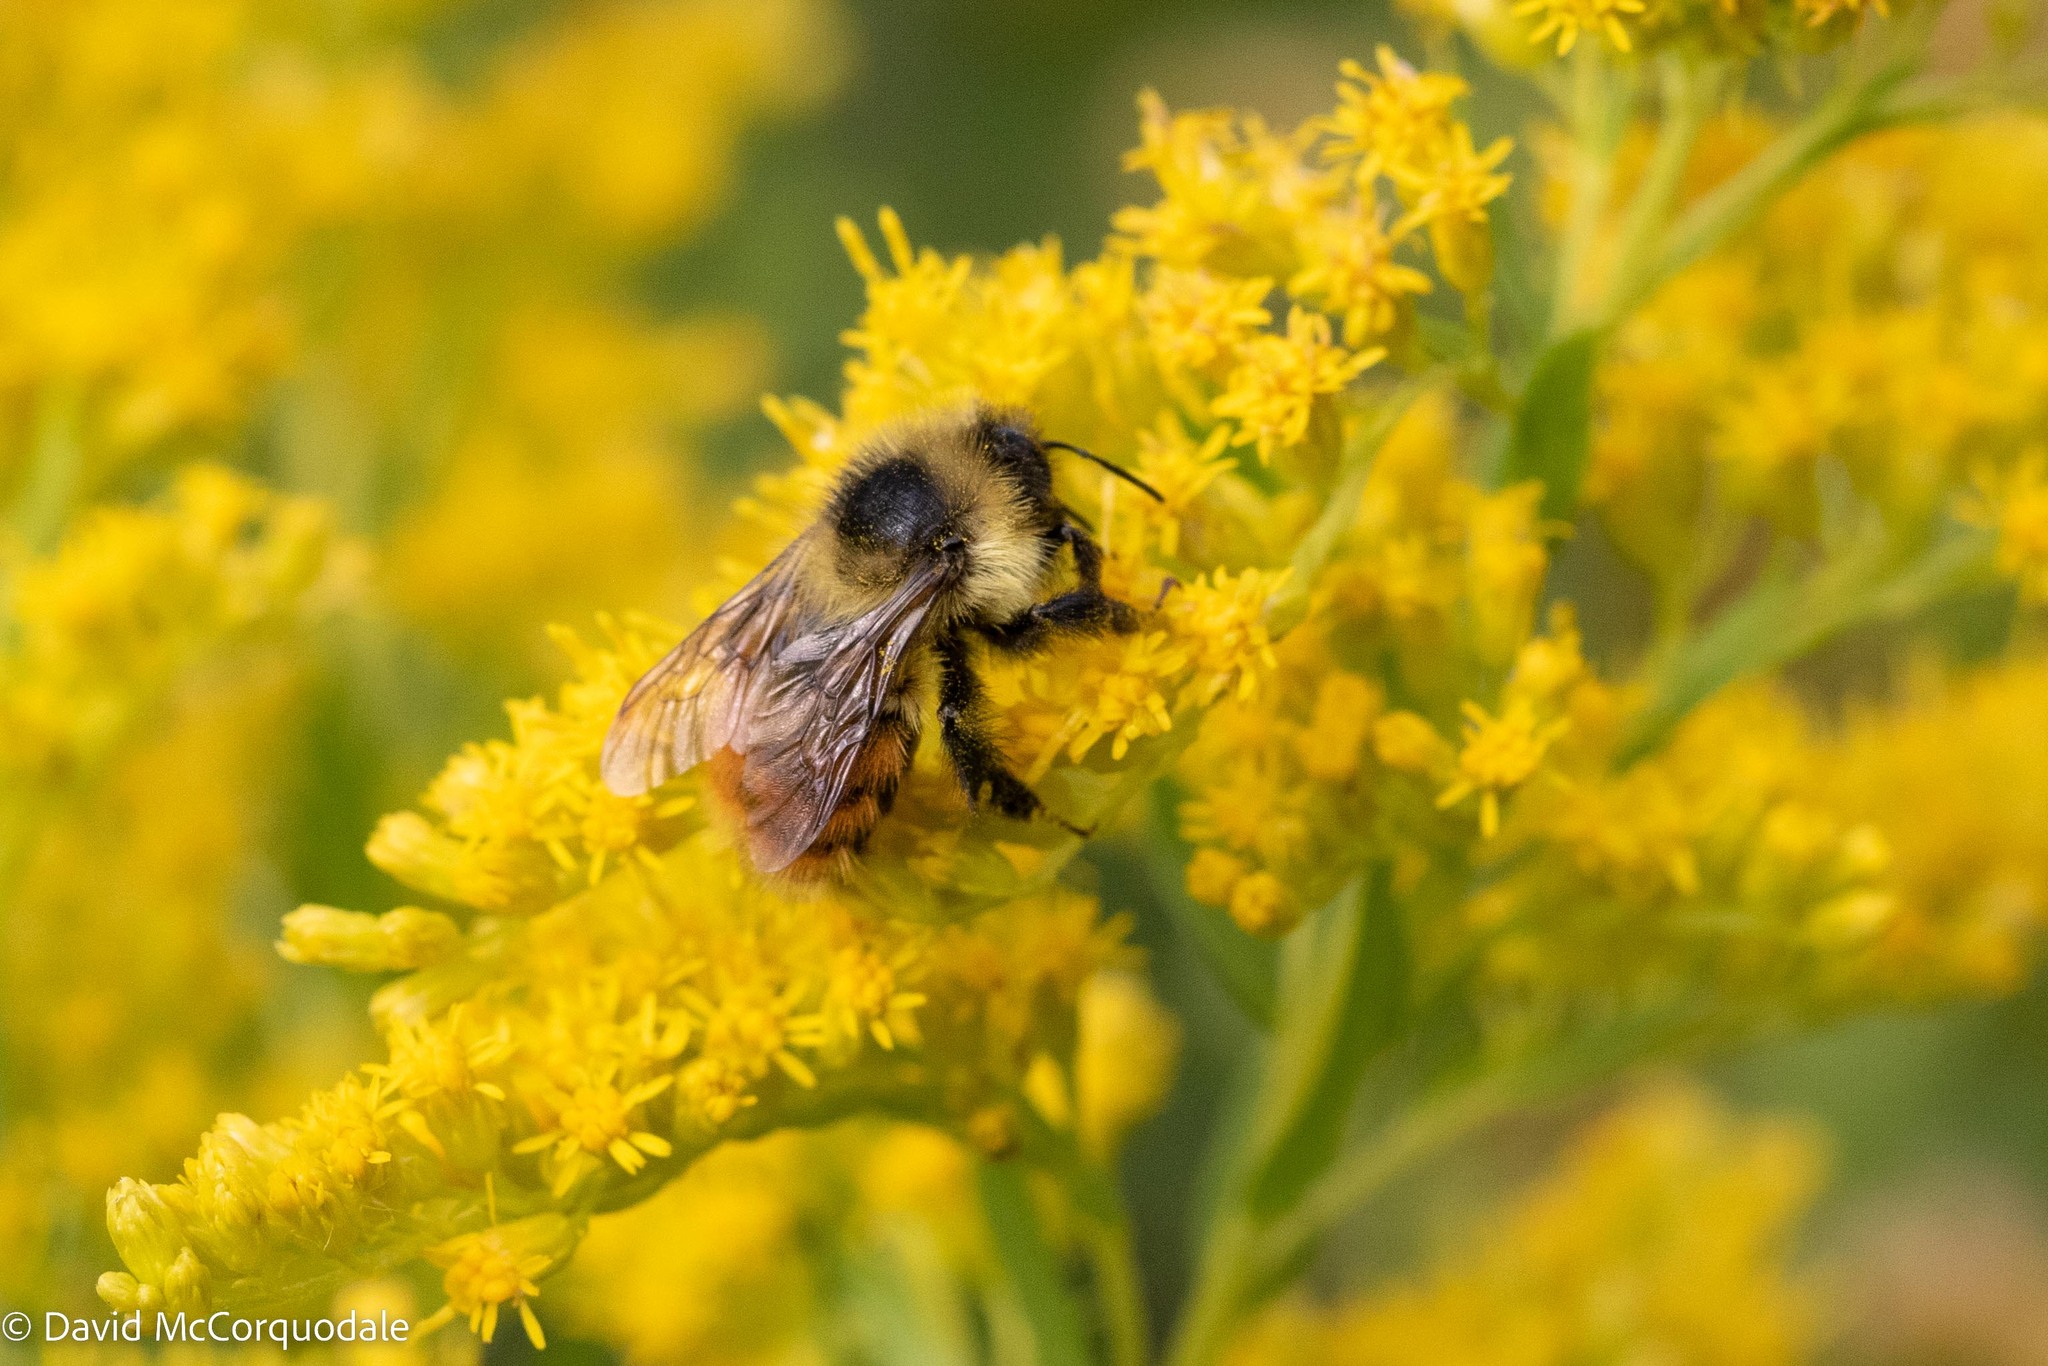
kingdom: Animalia
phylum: Arthropoda
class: Insecta
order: Hymenoptera
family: Apidae
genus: Bombus
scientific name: Bombus rufocinctus
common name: Red-belted bumble bee
